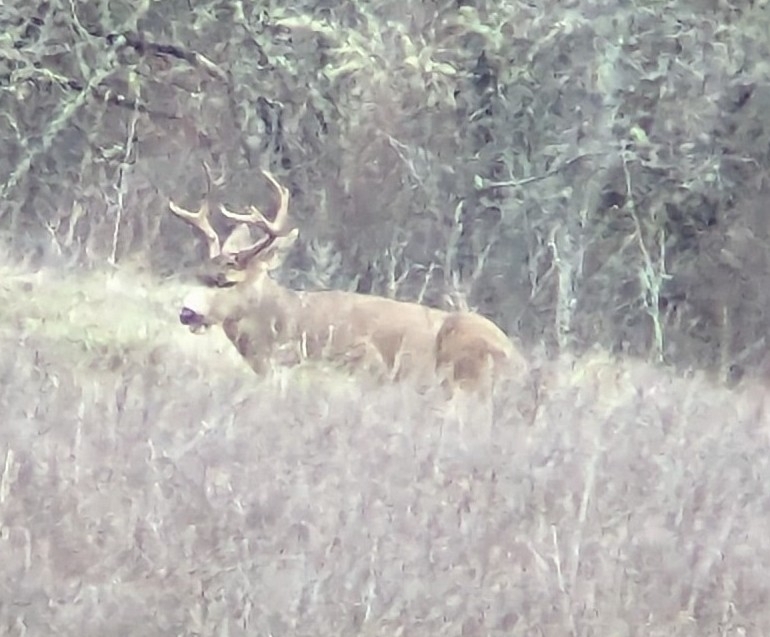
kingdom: Animalia
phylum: Chordata
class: Mammalia
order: Artiodactyla
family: Cervidae
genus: Odocoileus
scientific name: Odocoileus hemionus
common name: Mule deer
